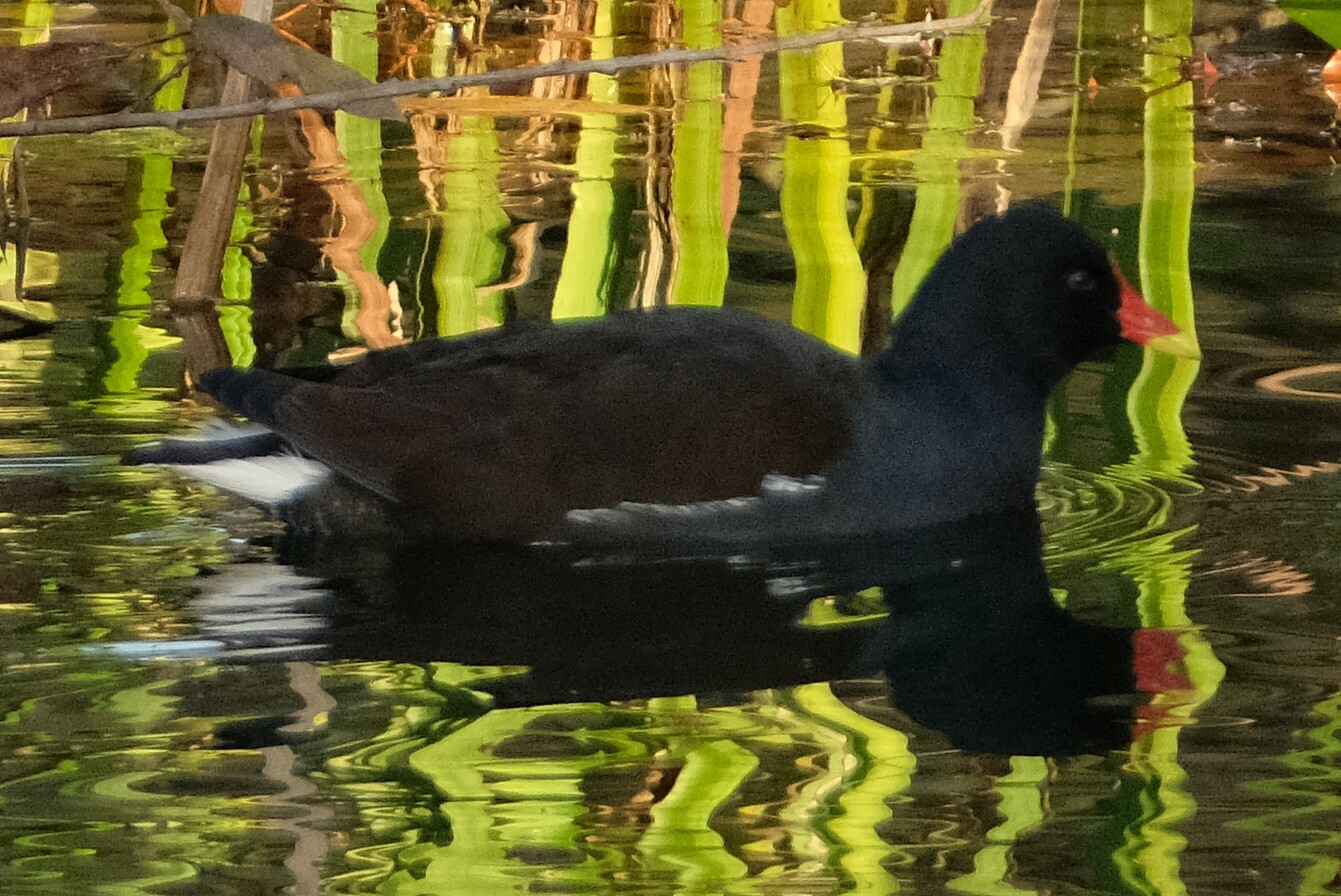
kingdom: Animalia
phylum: Chordata
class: Aves
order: Gruiformes
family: Rallidae
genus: Gallinula
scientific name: Gallinula chloropus
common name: Common moorhen
